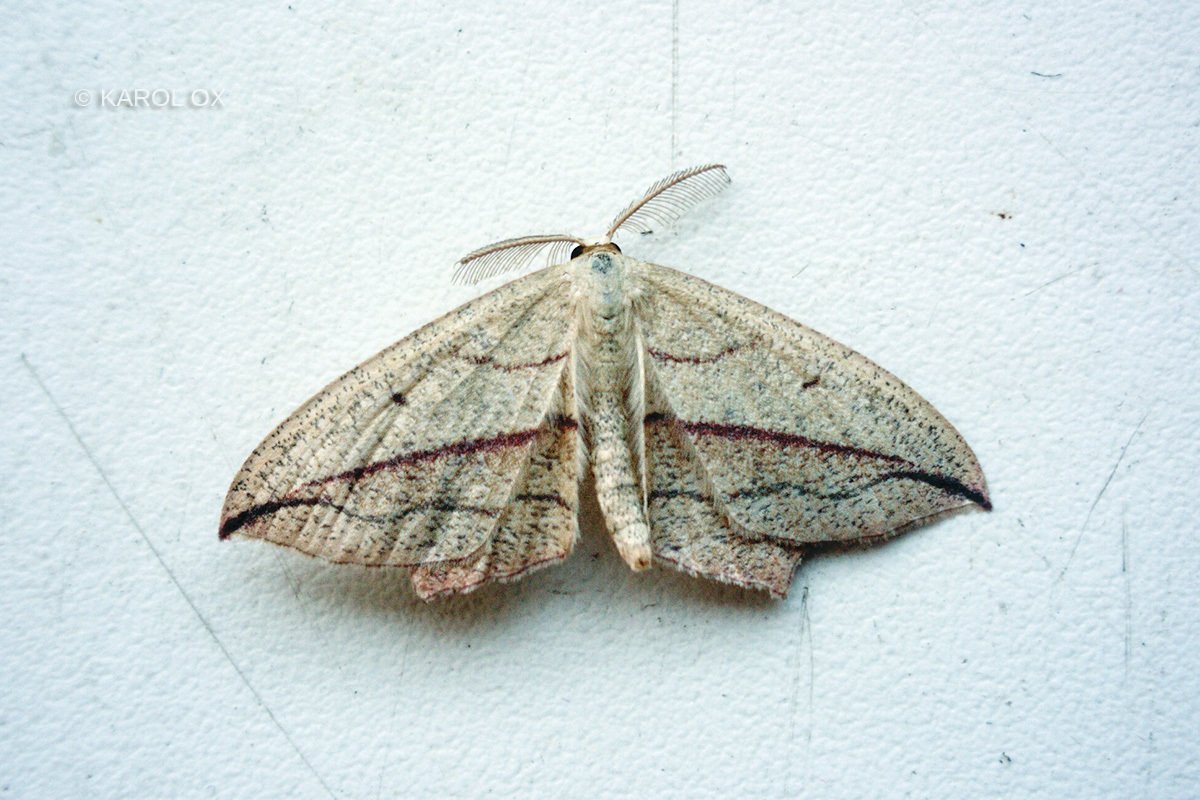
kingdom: Animalia
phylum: Arthropoda
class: Insecta
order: Lepidoptera
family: Geometridae
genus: Timandra
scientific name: Timandra comae
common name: Blood-vein
